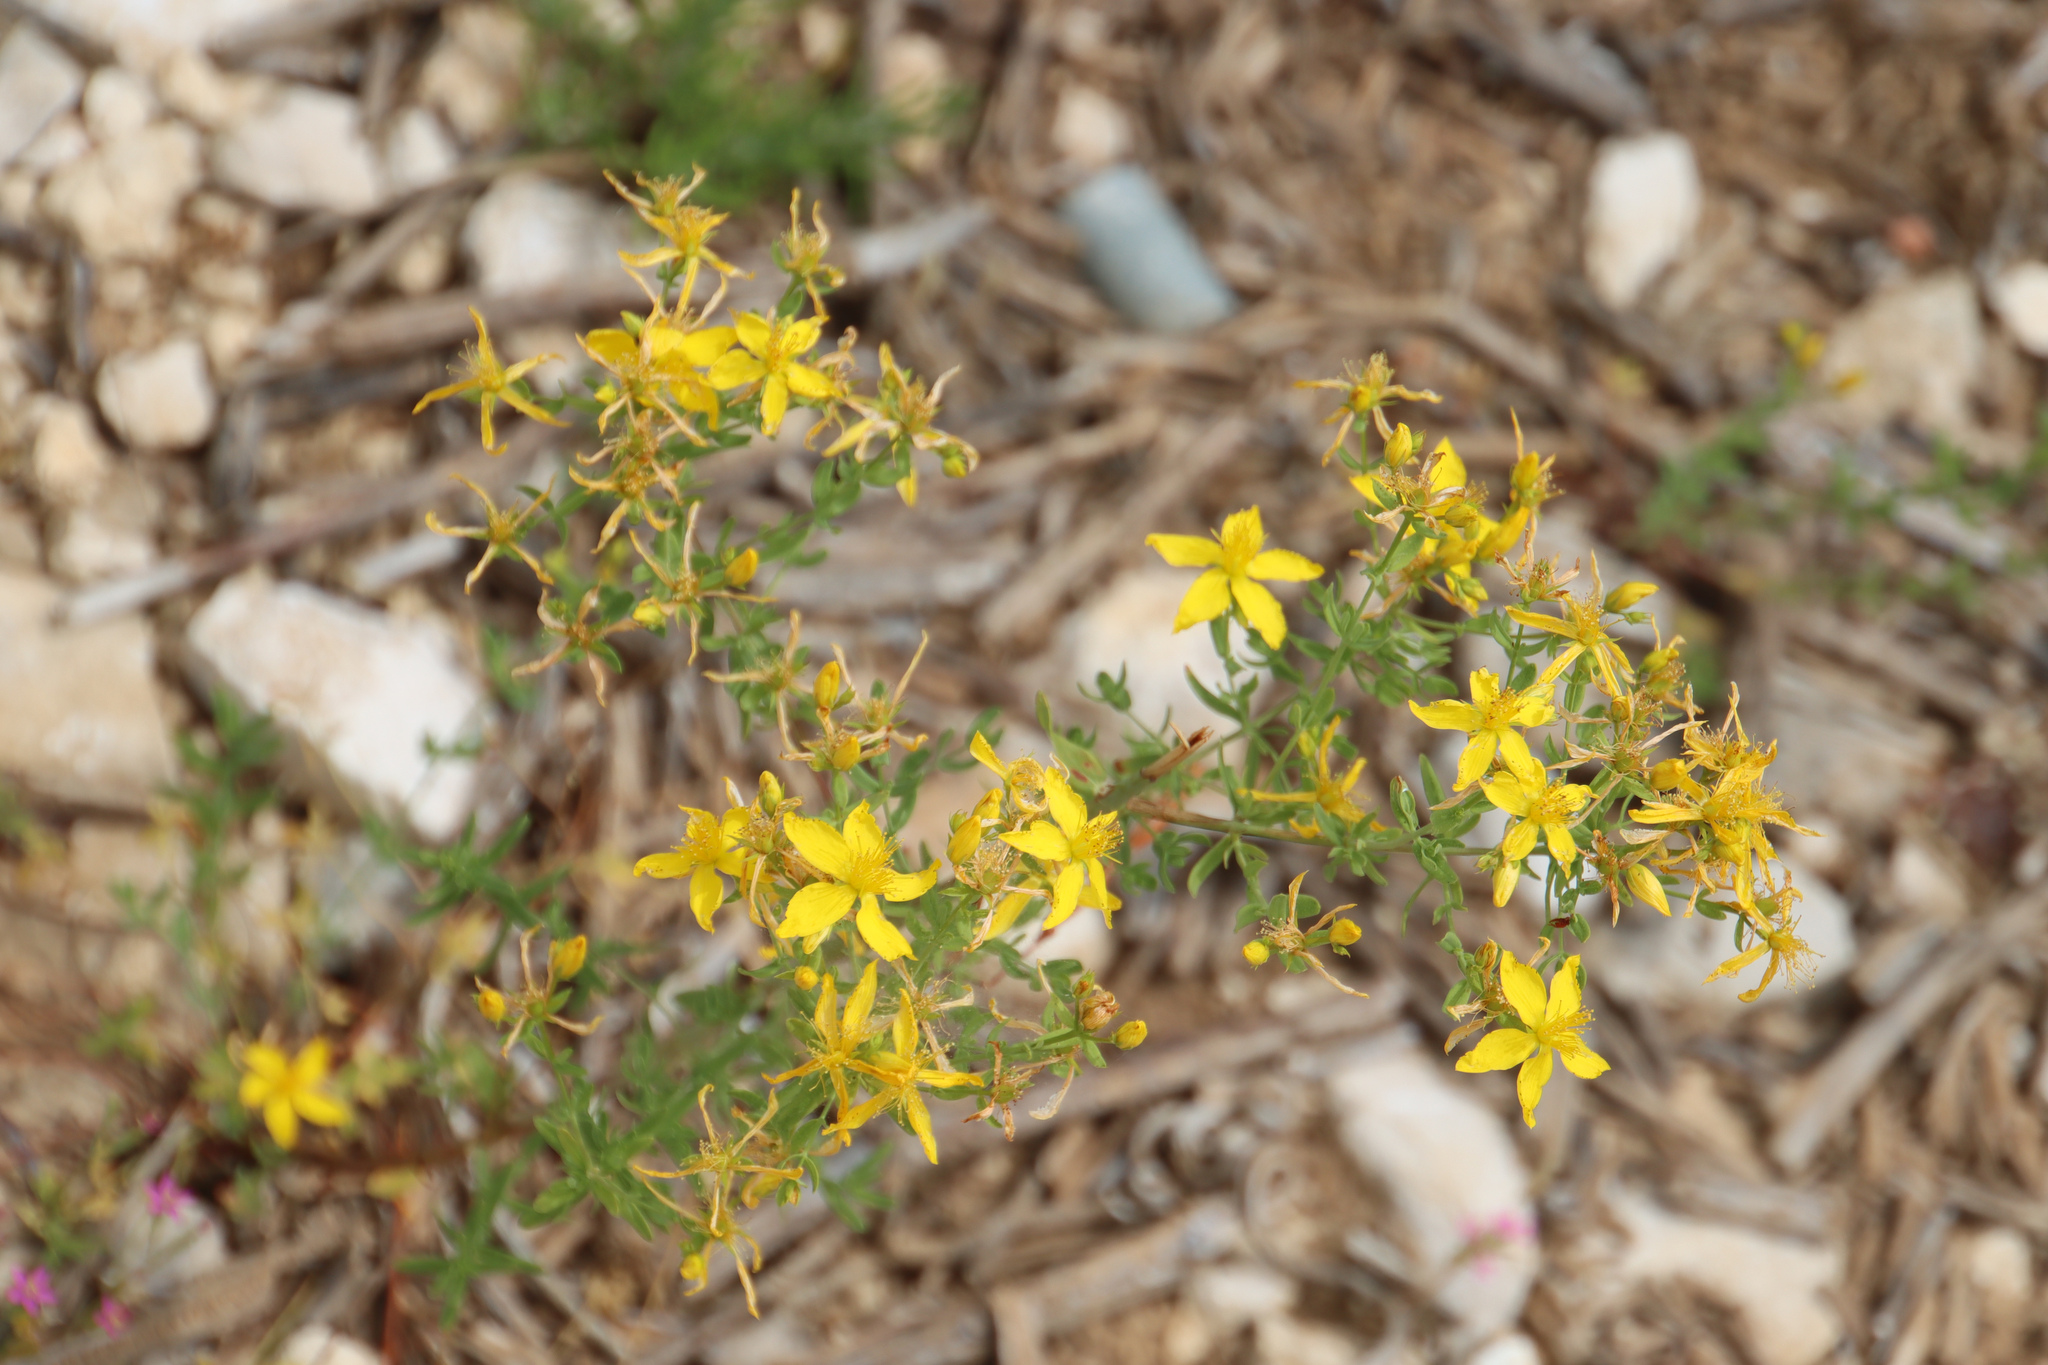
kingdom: Plantae
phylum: Tracheophyta
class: Magnoliopsida
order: Malpighiales
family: Hypericaceae
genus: Hypericum
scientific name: Hypericum perforatum
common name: Common st. johnswort
